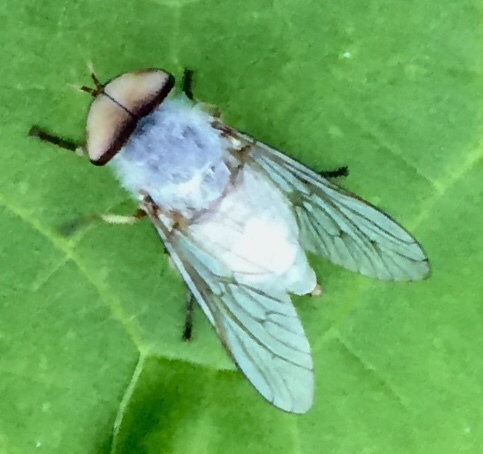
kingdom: Animalia
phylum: Arthropoda
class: Insecta
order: Diptera
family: Tabanidae
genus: Leucotabanus
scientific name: Leucotabanus annulatus
